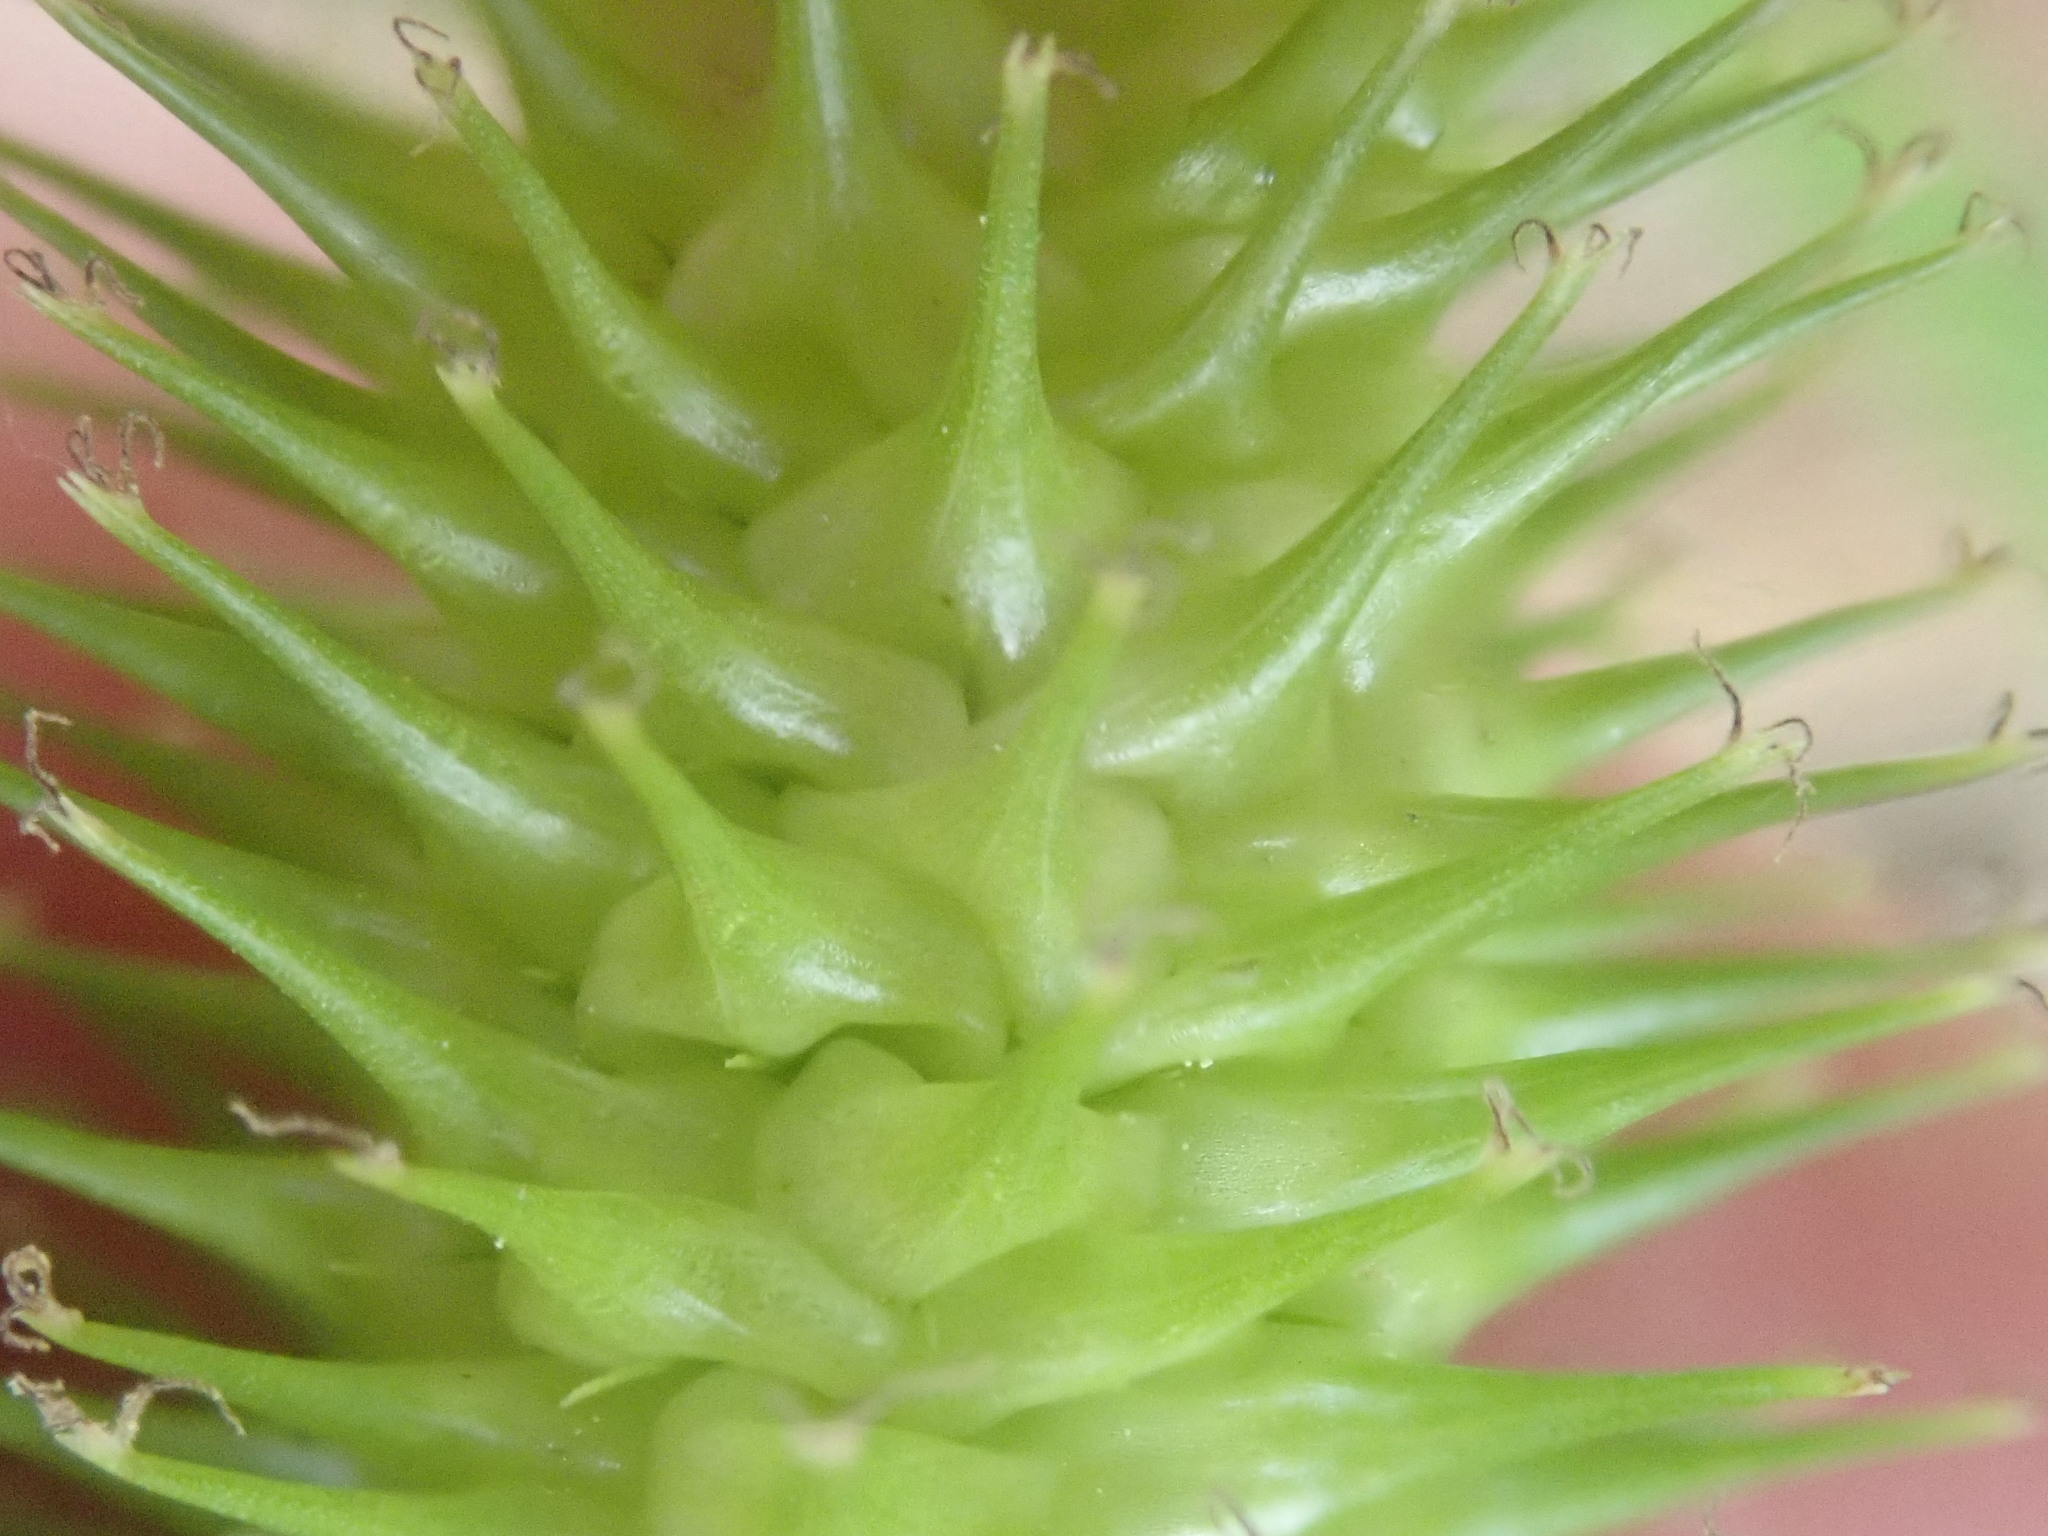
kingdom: Plantae
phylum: Tracheophyta
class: Liliopsida
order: Poales
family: Cyperaceae
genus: Carex
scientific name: Carex lurida
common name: Sallow sedge
